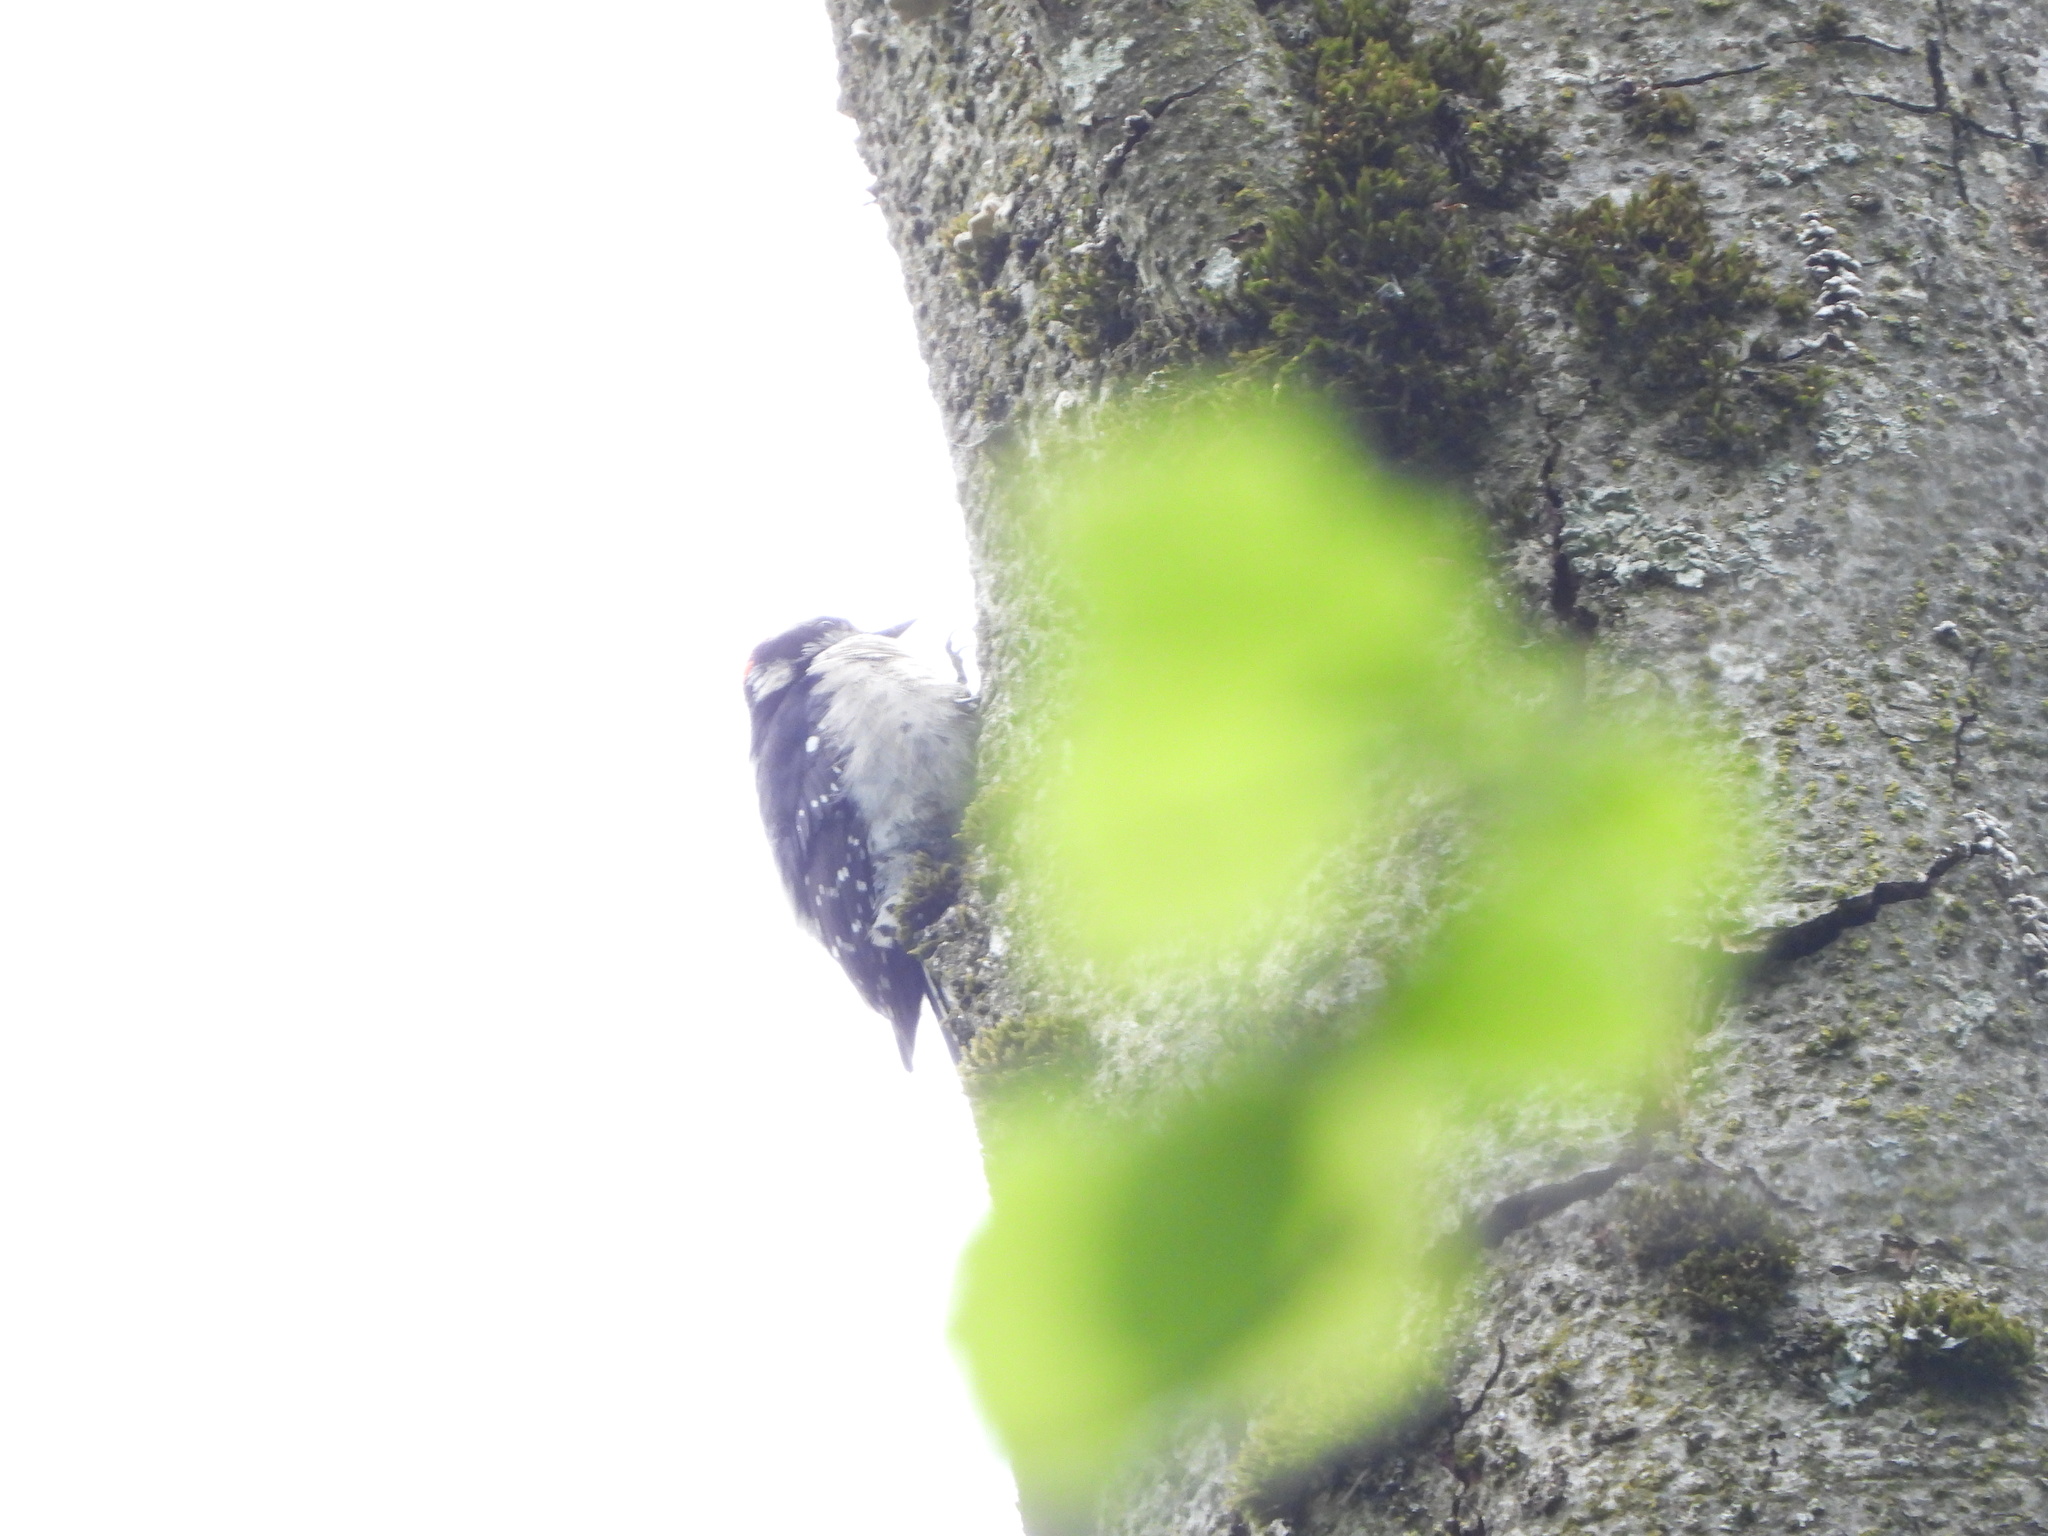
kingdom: Animalia
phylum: Chordata
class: Aves
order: Piciformes
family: Picidae
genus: Dryobates
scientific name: Dryobates pubescens
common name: Downy woodpecker
